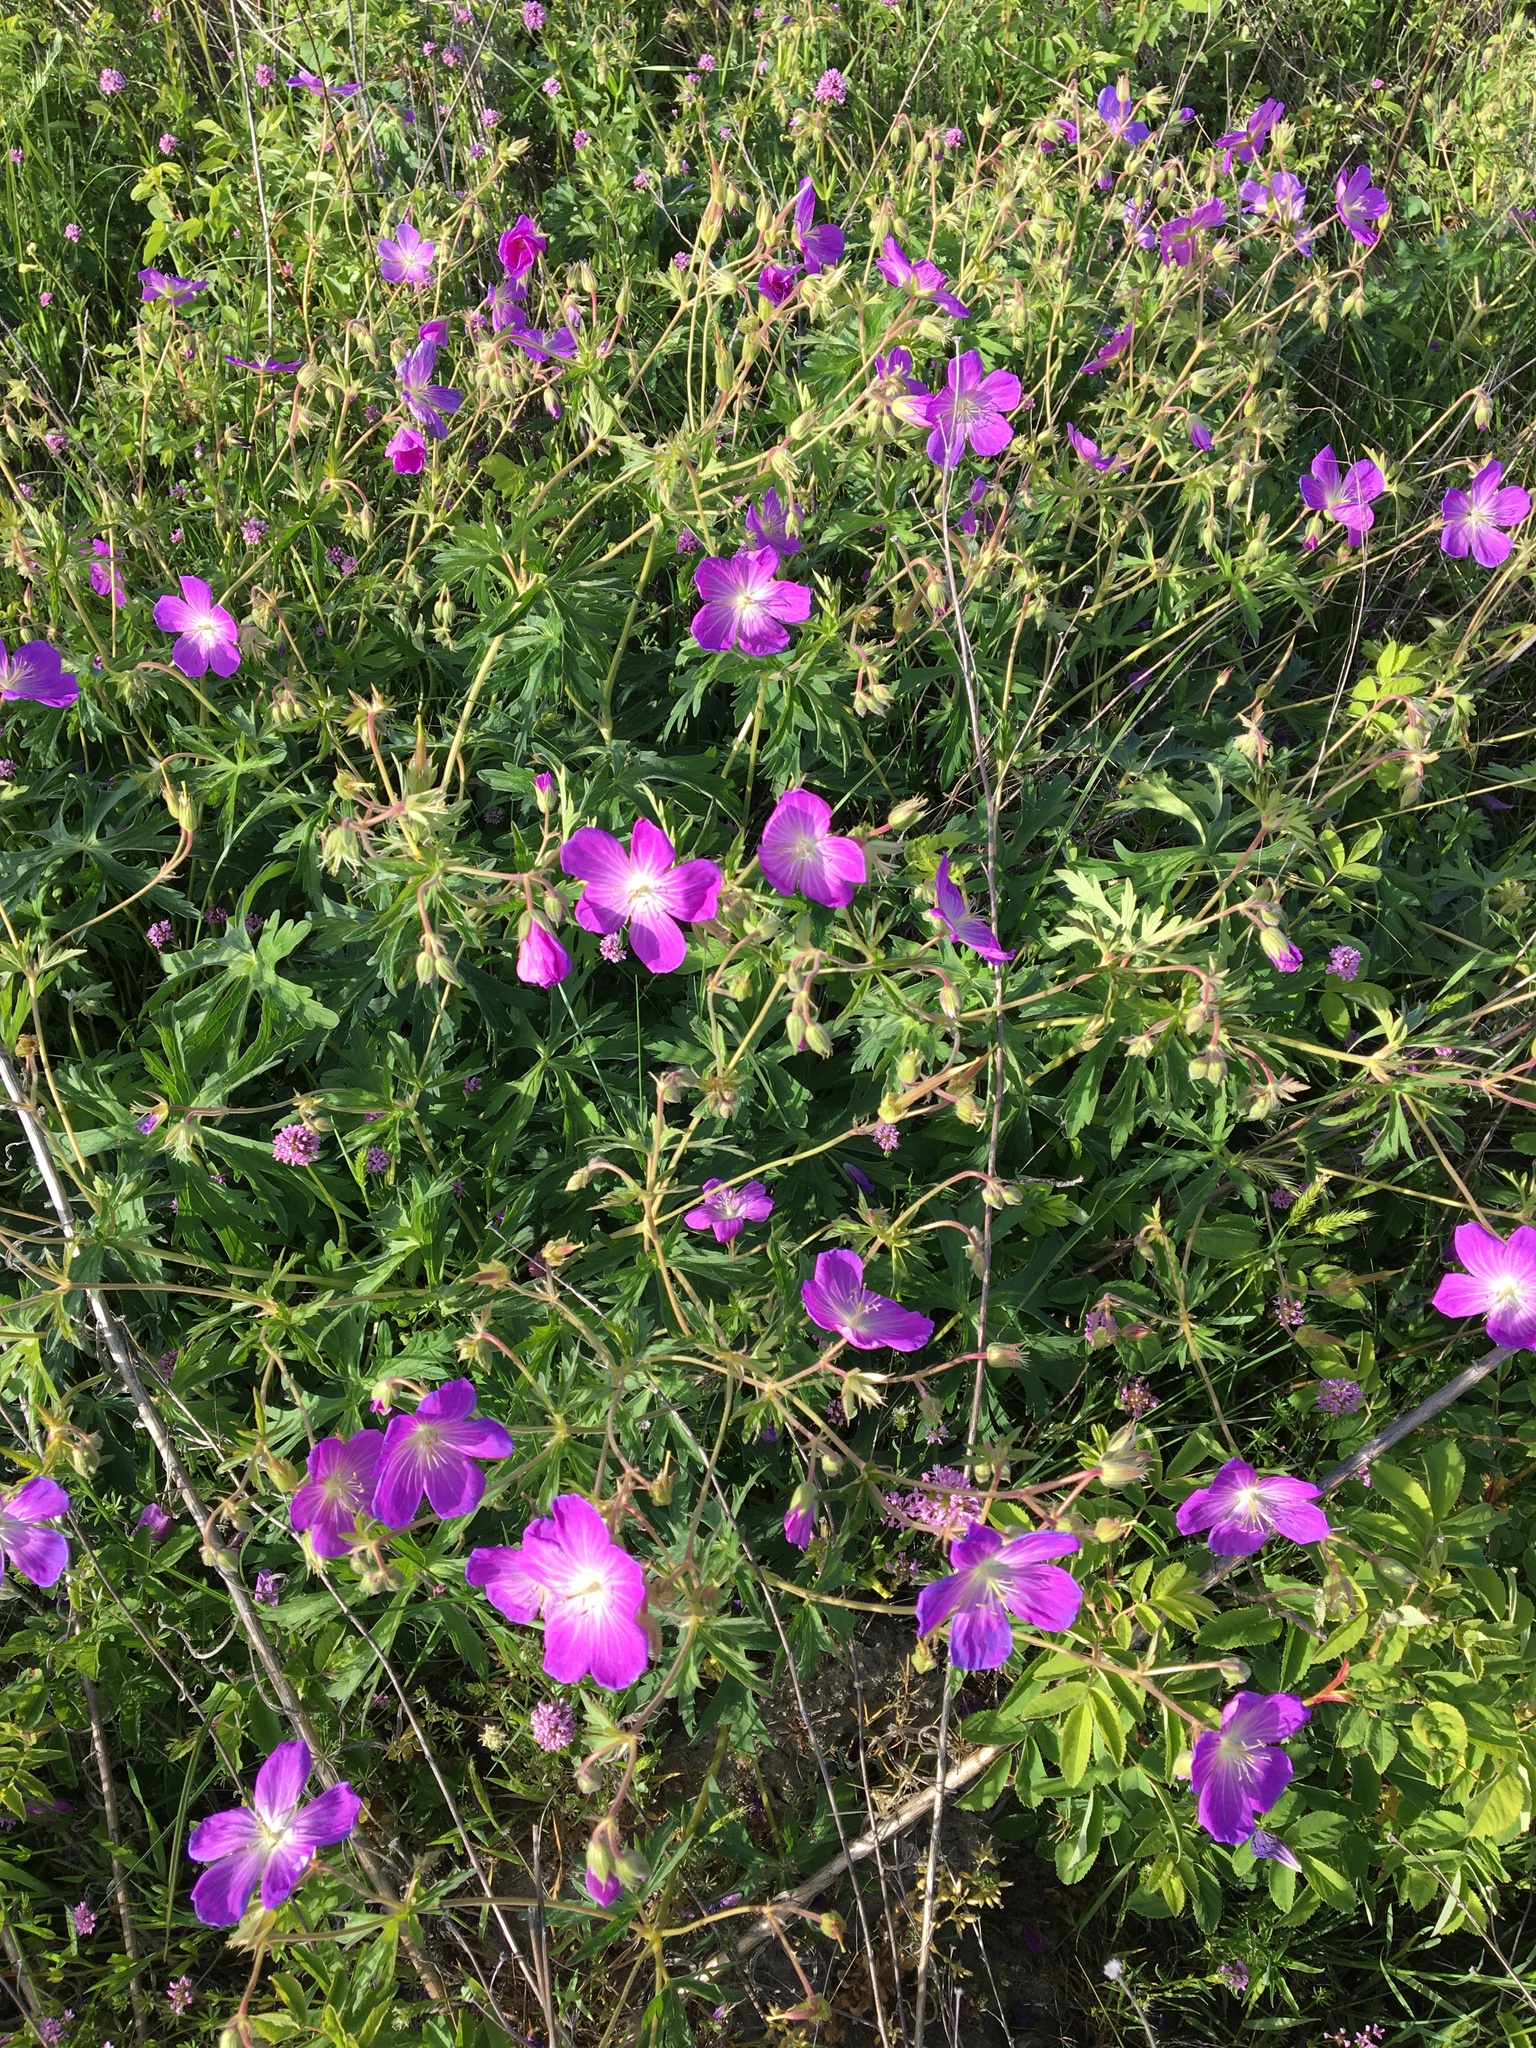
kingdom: Plantae
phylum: Tracheophyta
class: Magnoliopsida
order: Geraniales
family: Geraniaceae
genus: Geranium
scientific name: Geranium oreganum
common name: Oregon crane's-bill
